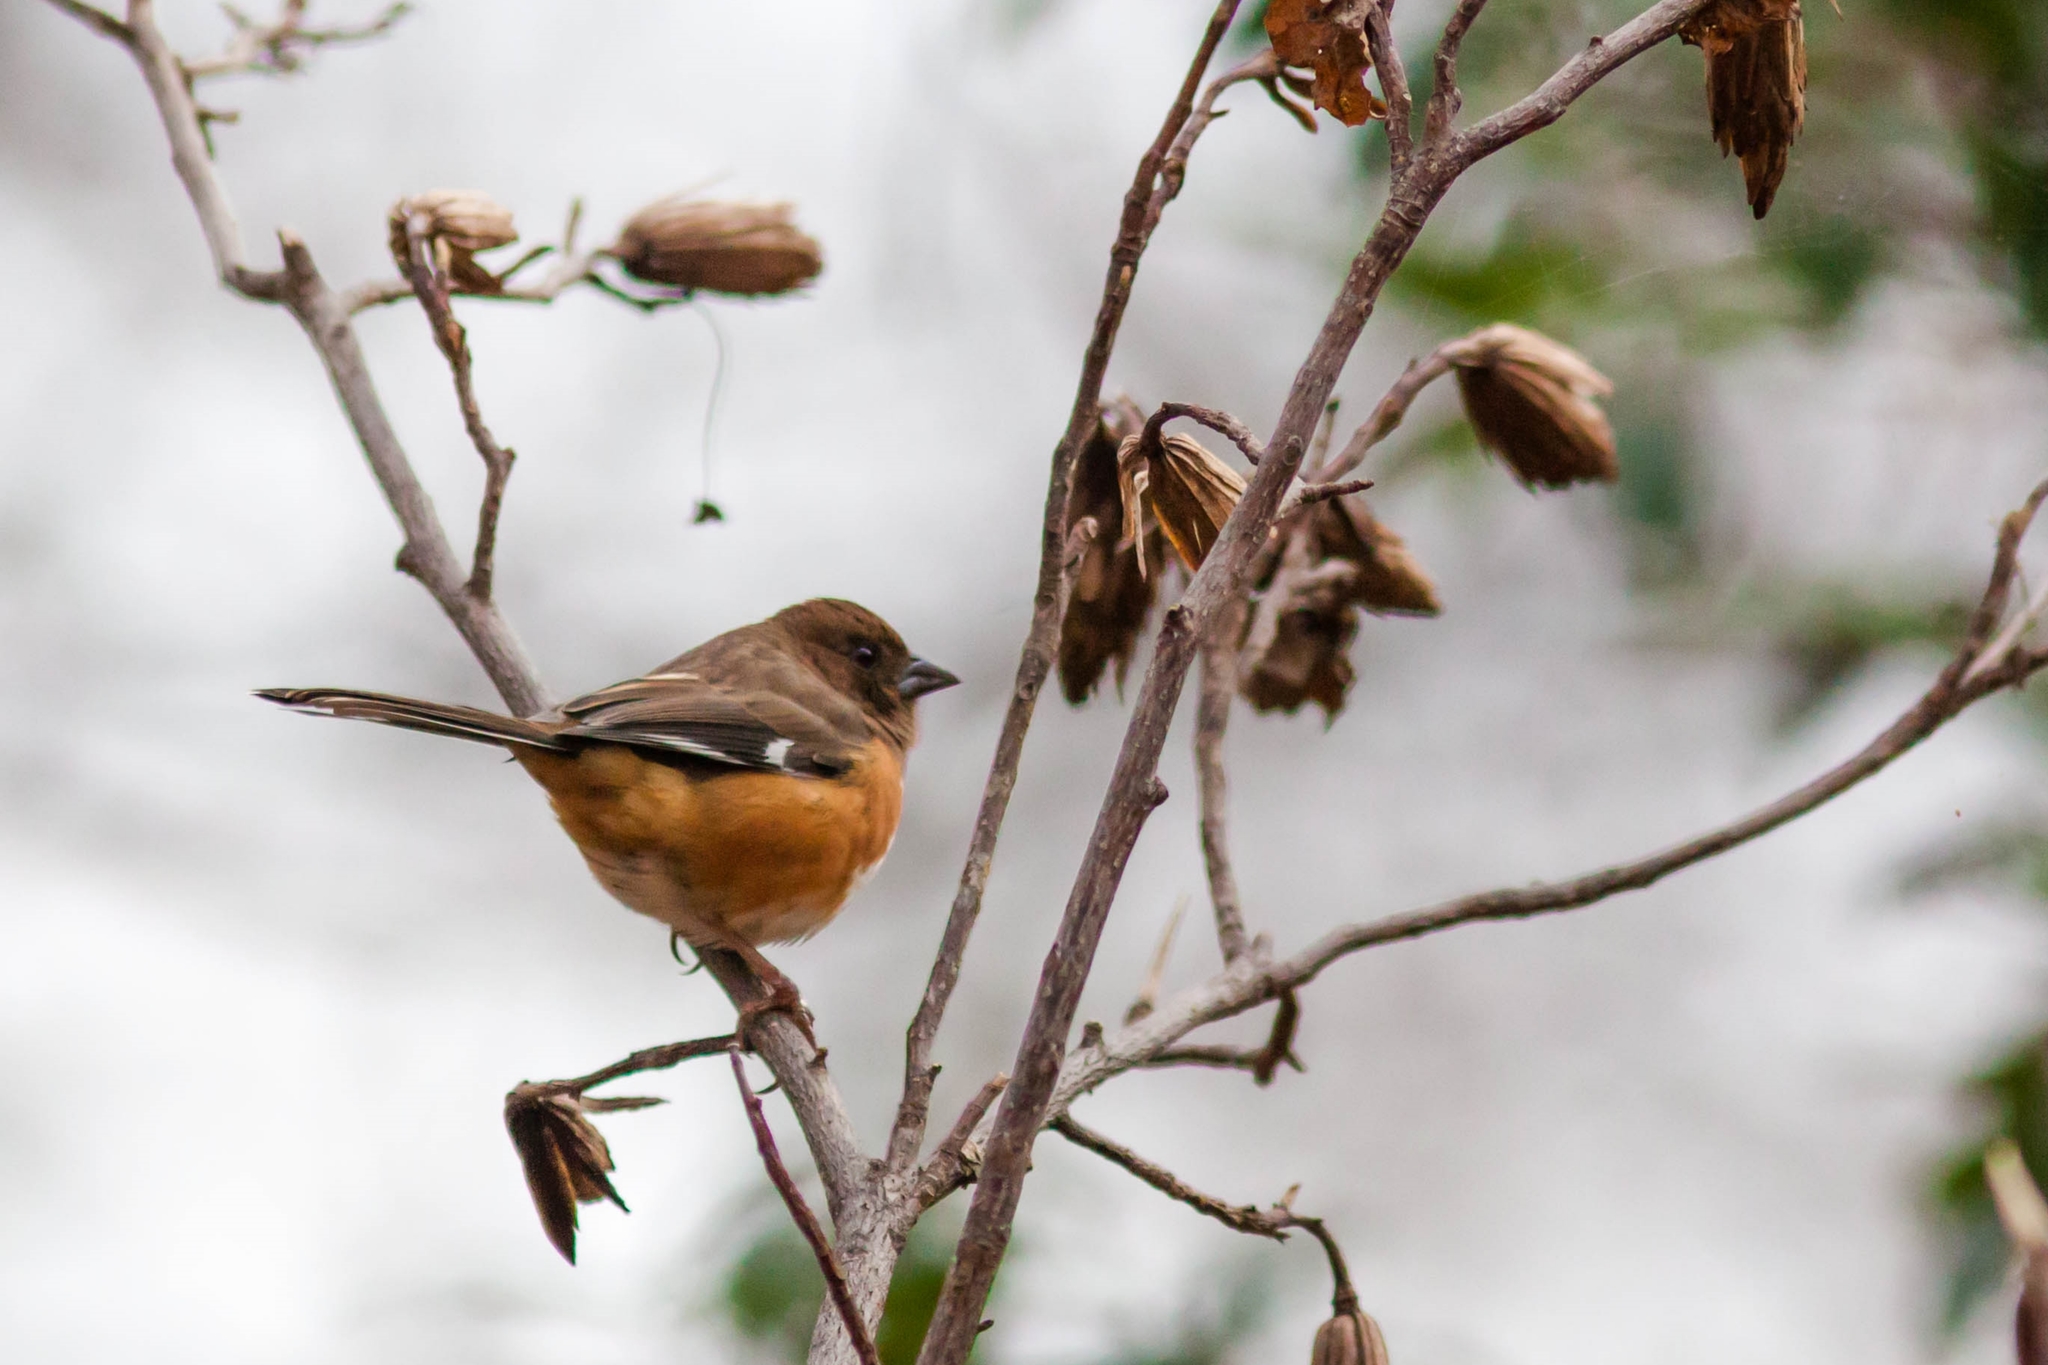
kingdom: Animalia
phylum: Chordata
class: Aves
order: Passeriformes
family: Passerellidae
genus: Pipilo
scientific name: Pipilo erythrophthalmus
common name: Eastern towhee
